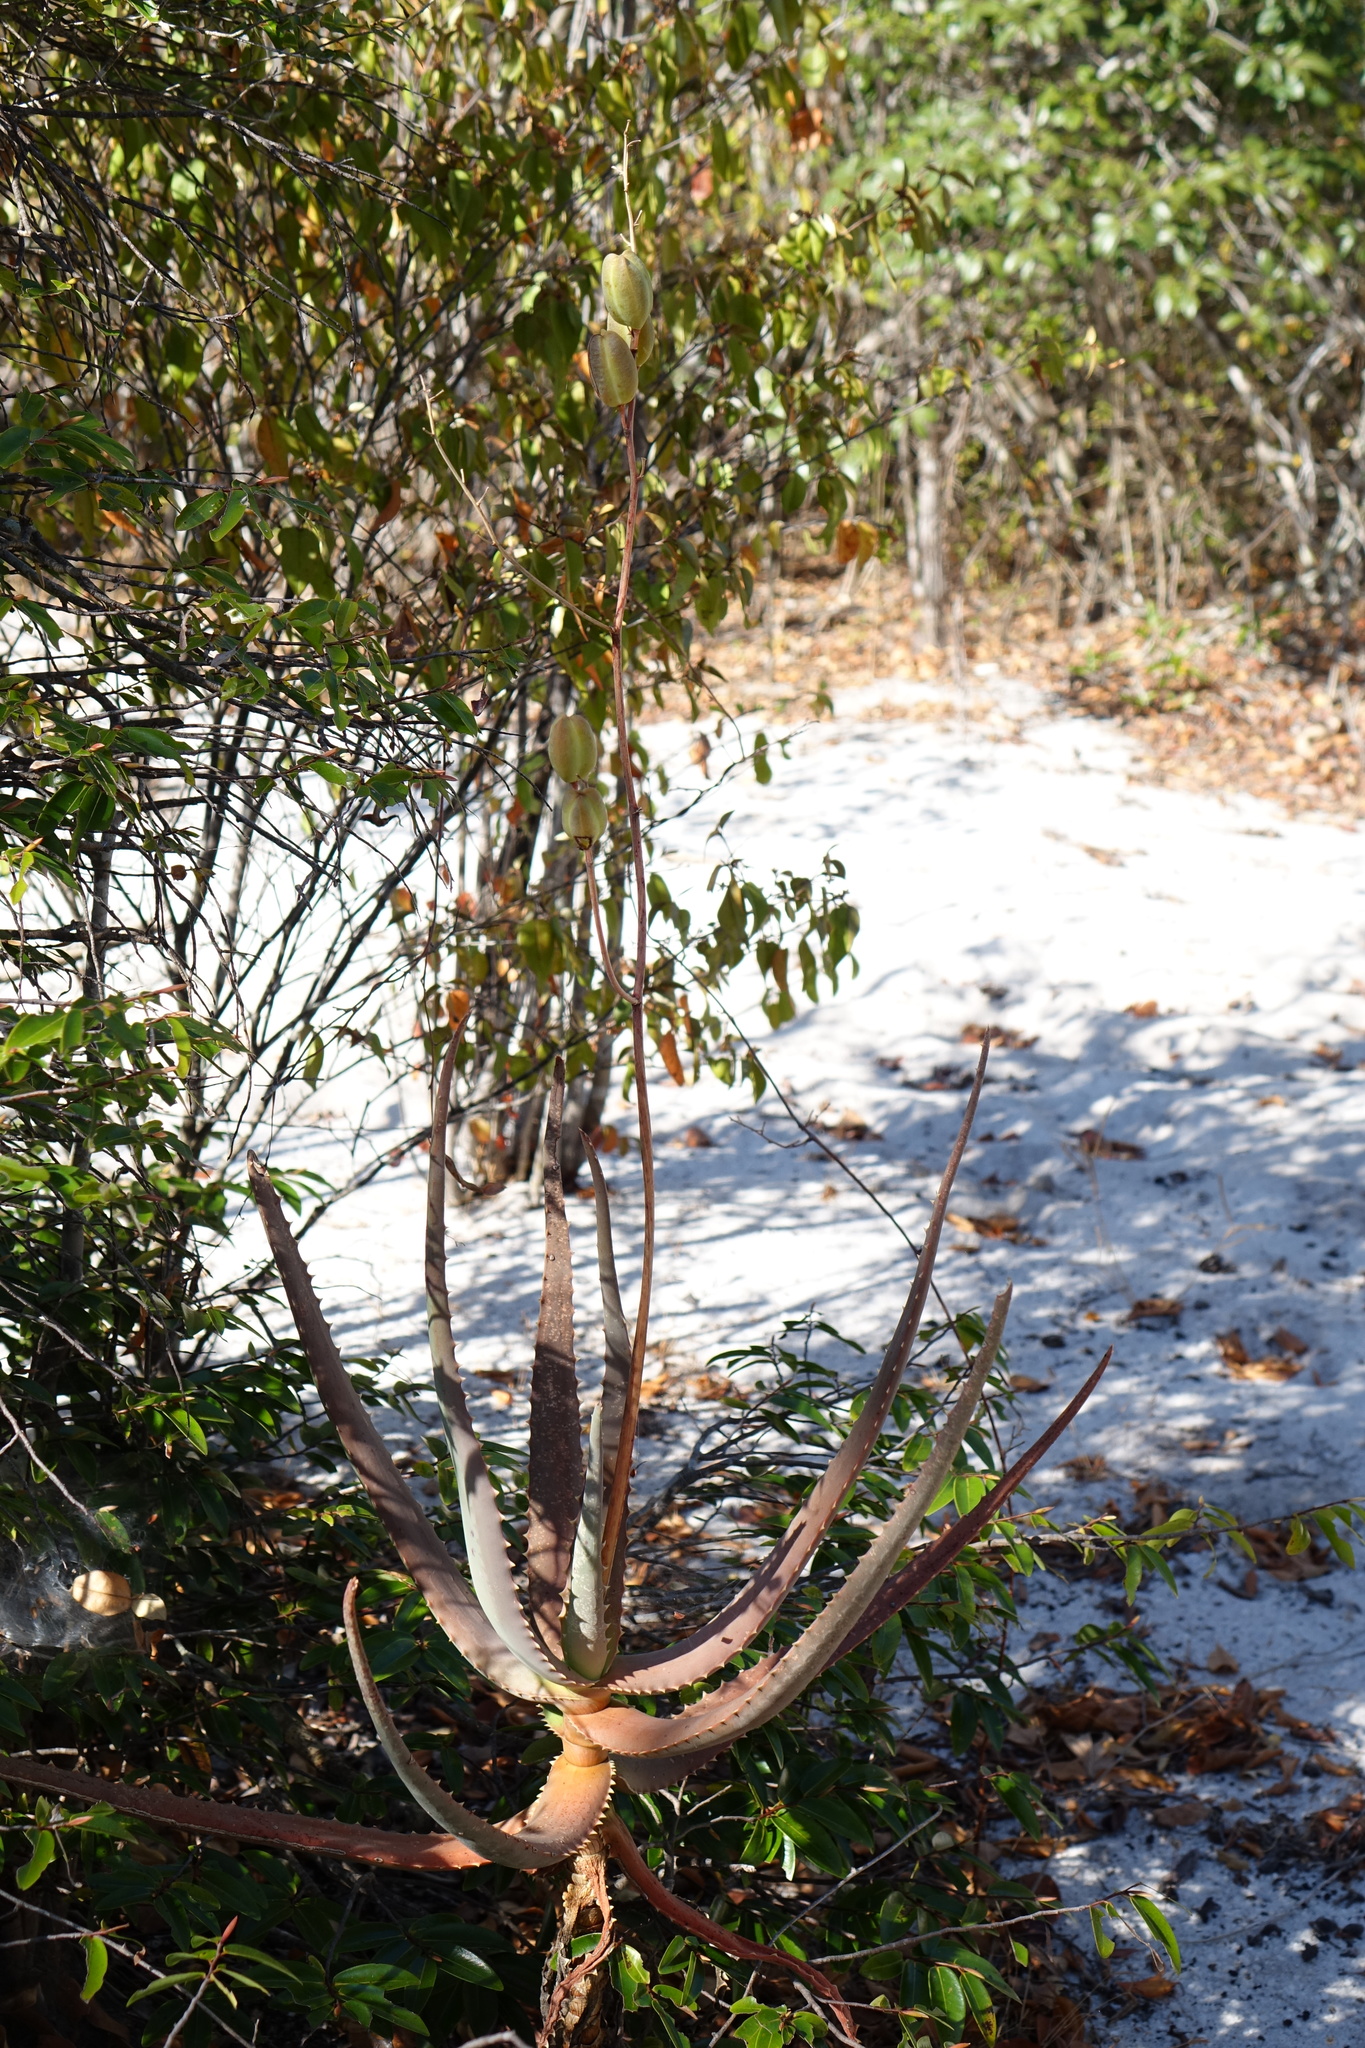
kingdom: Plantae
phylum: Tracheophyta
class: Liliopsida
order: Asparagales
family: Asphodelaceae
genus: Aloe
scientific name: Aloe divaricata
